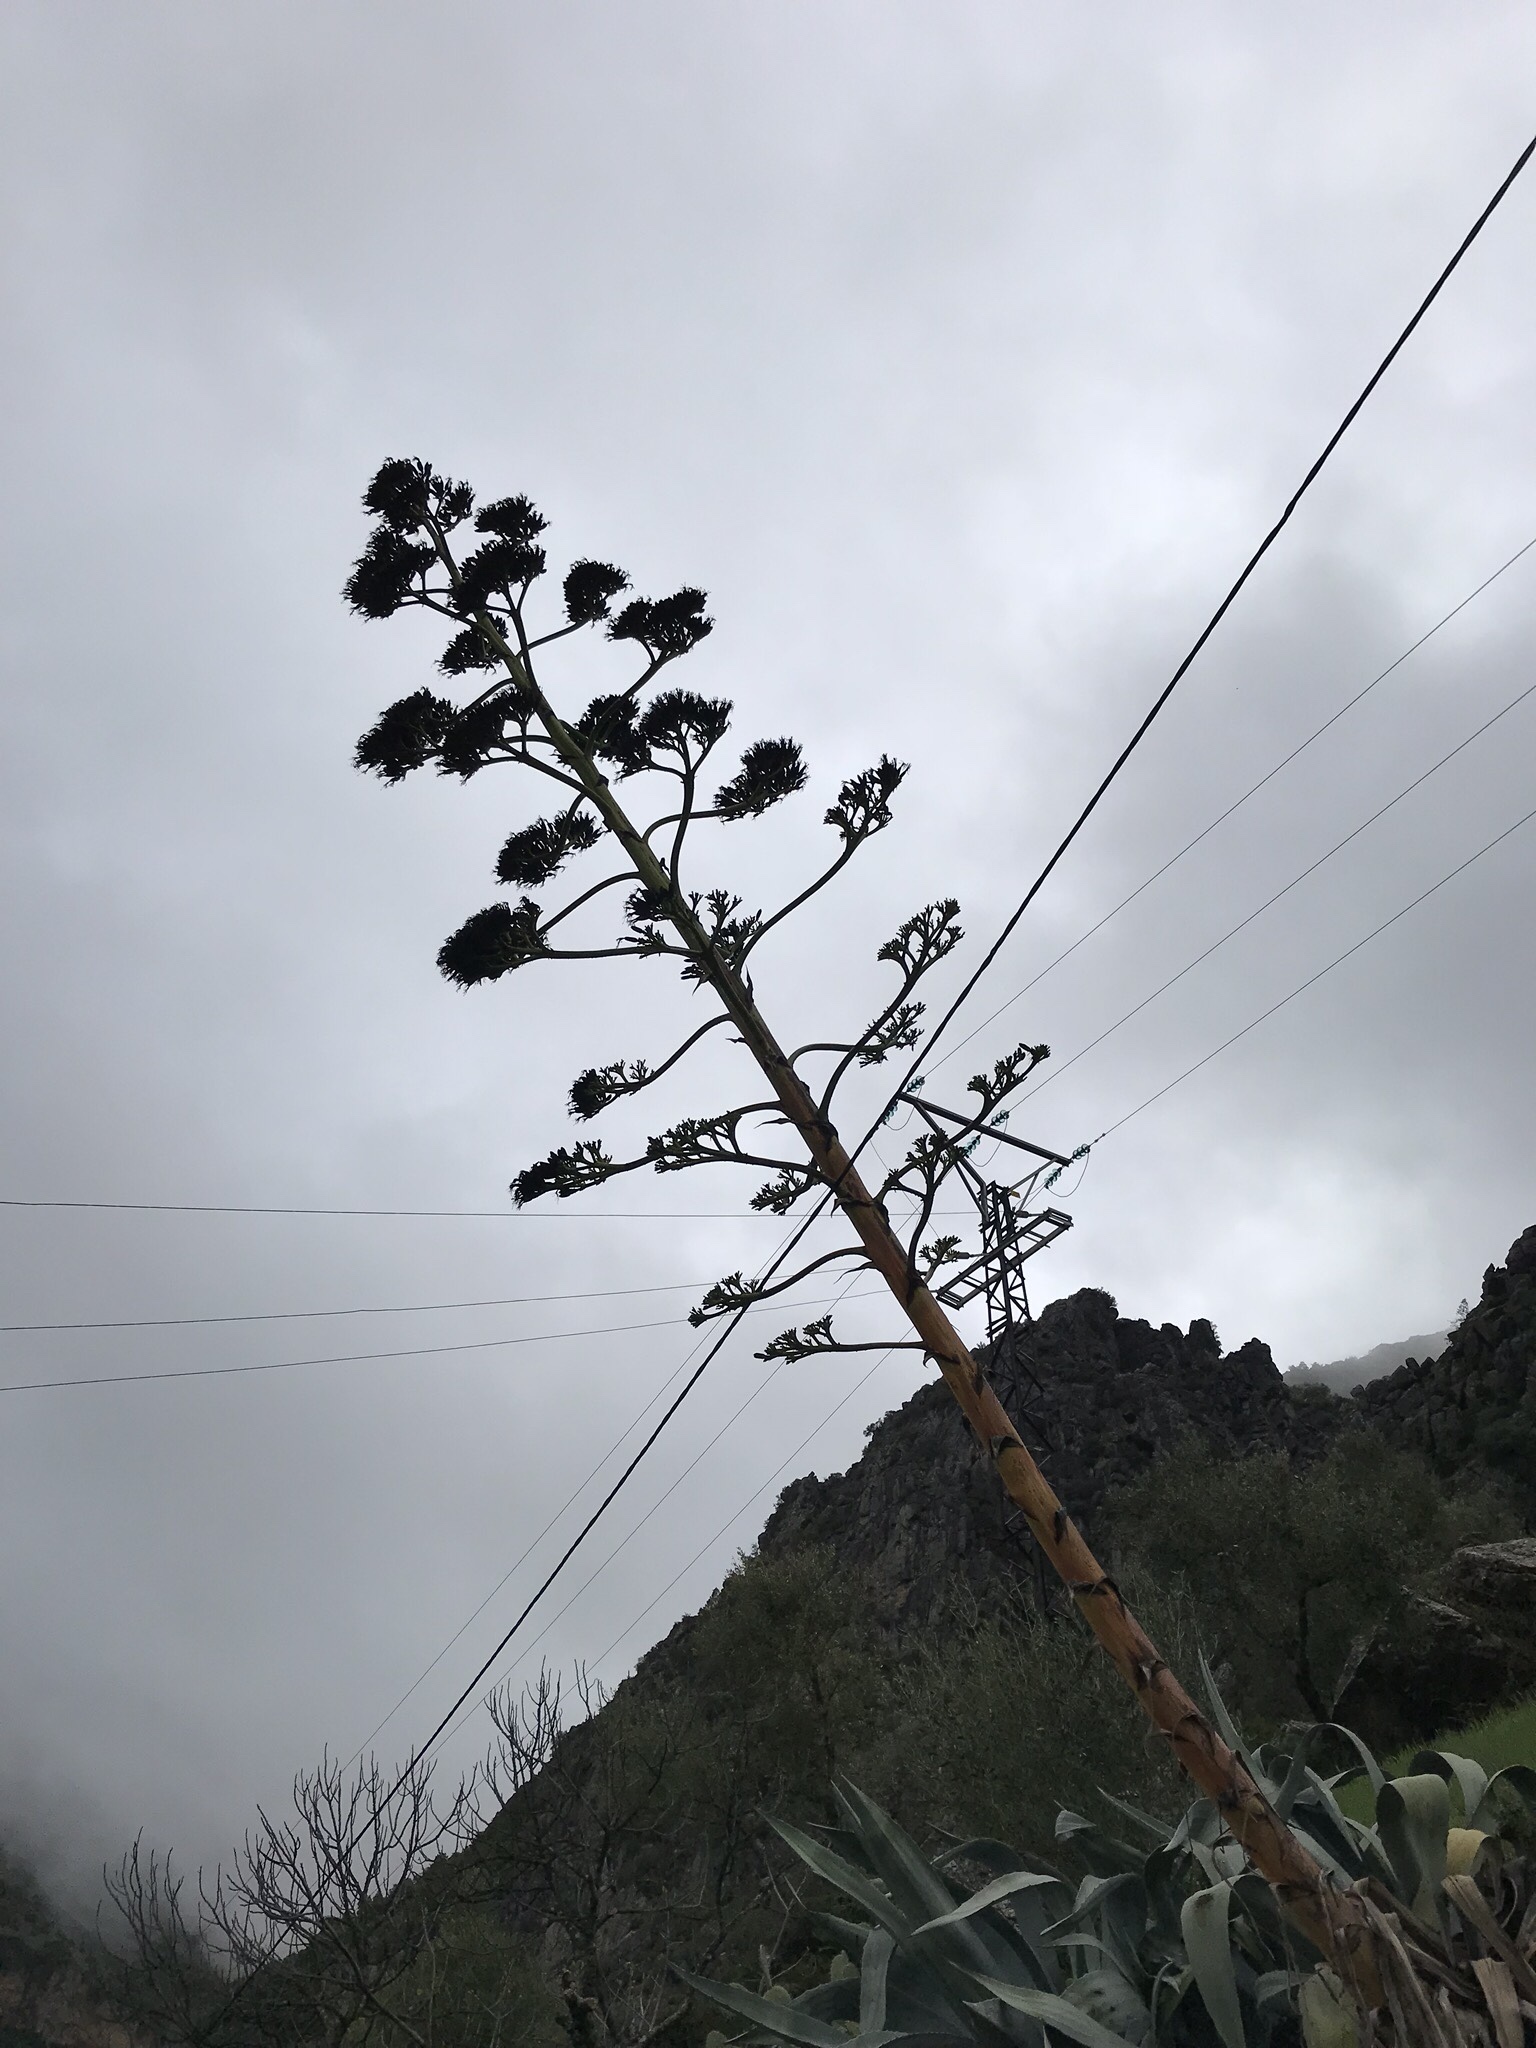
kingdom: Plantae
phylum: Tracheophyta
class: Liliopsida
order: Asparagales
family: Asparagaceae
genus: Agave
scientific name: Agave americana
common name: Centuryplant
